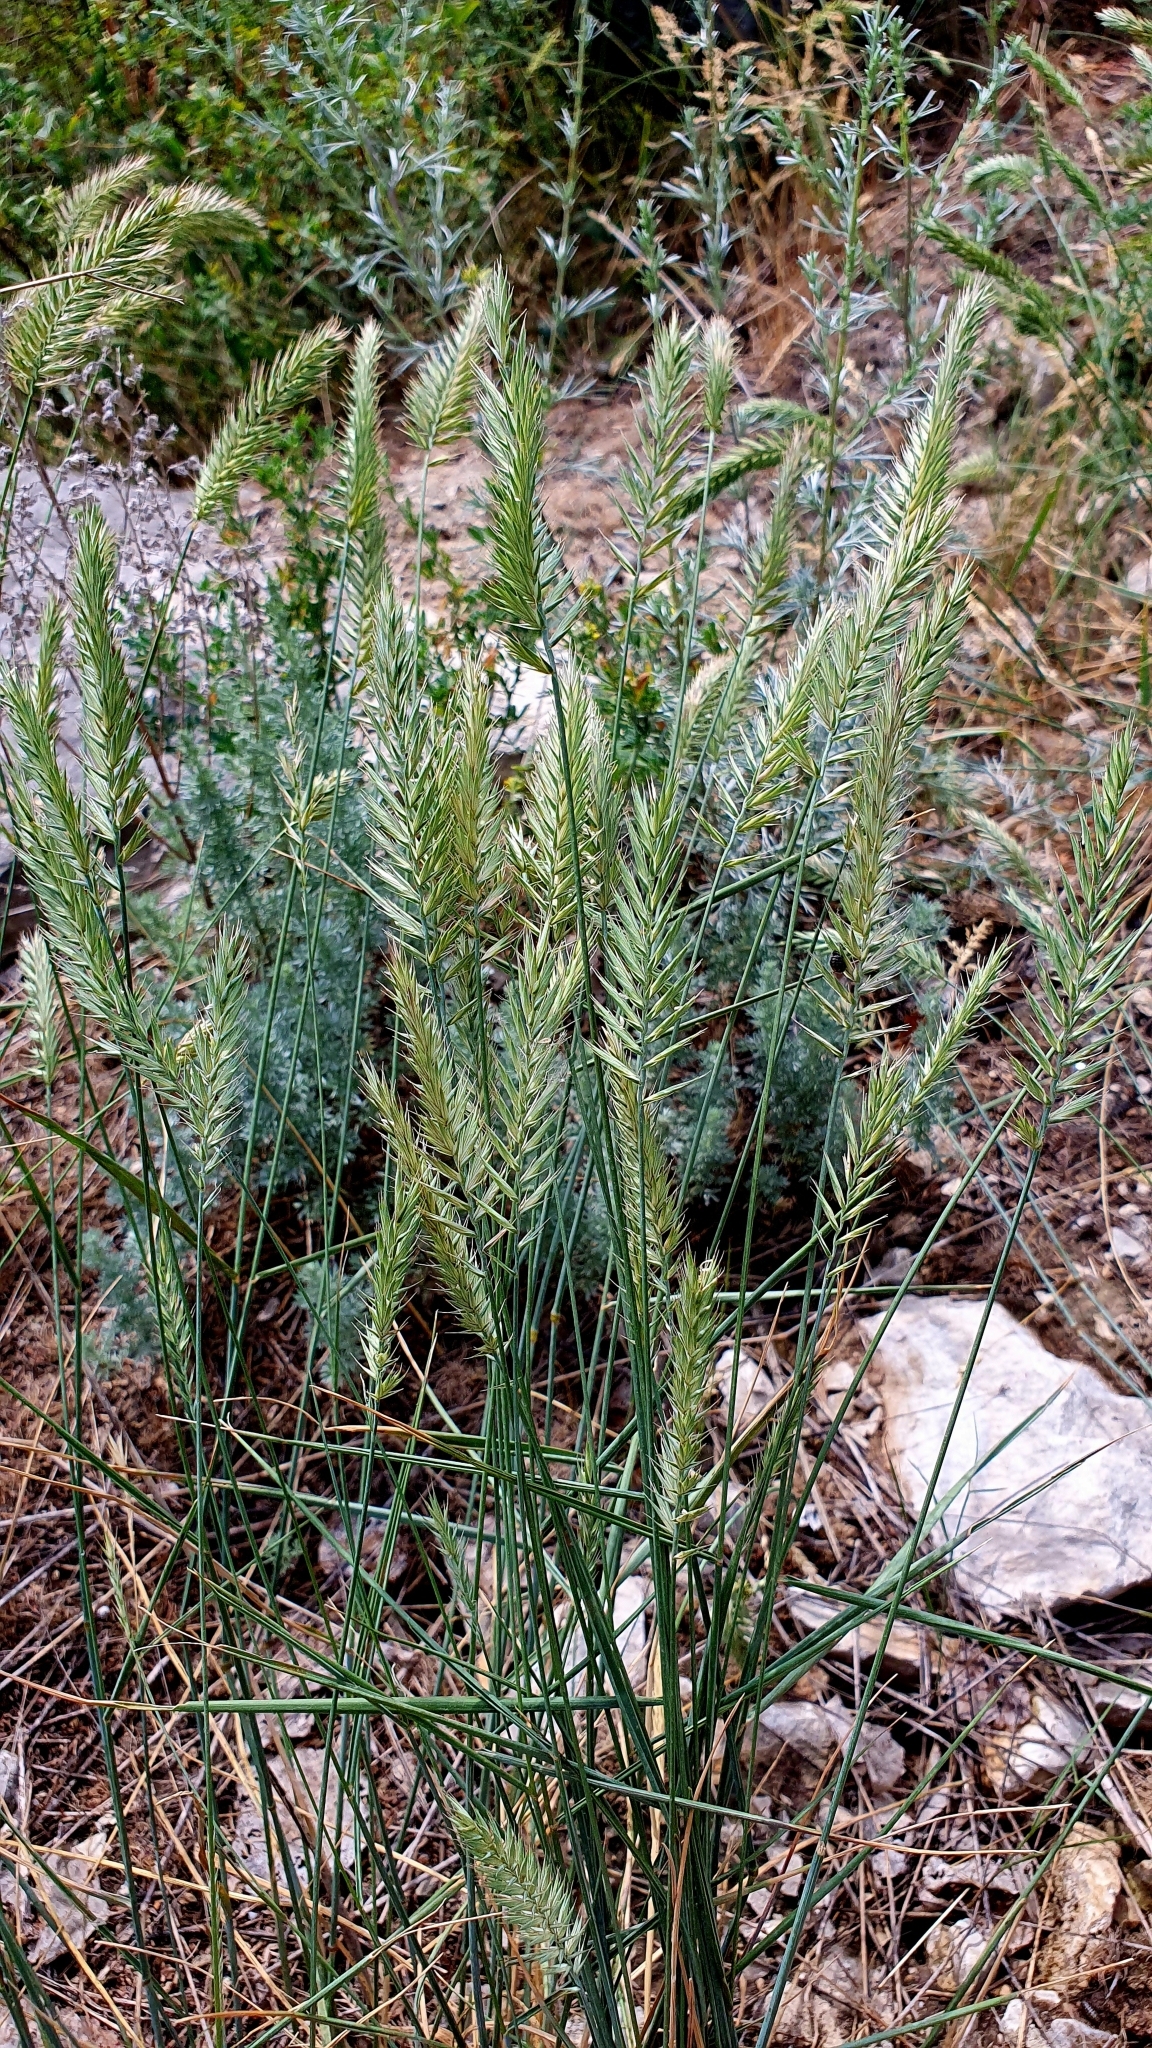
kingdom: Plantae
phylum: Tracheophyta
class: Liliopsida
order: Poales
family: Poaceae
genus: Agropyron
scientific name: Agropyron cristatum
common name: Crested wheatgrass
